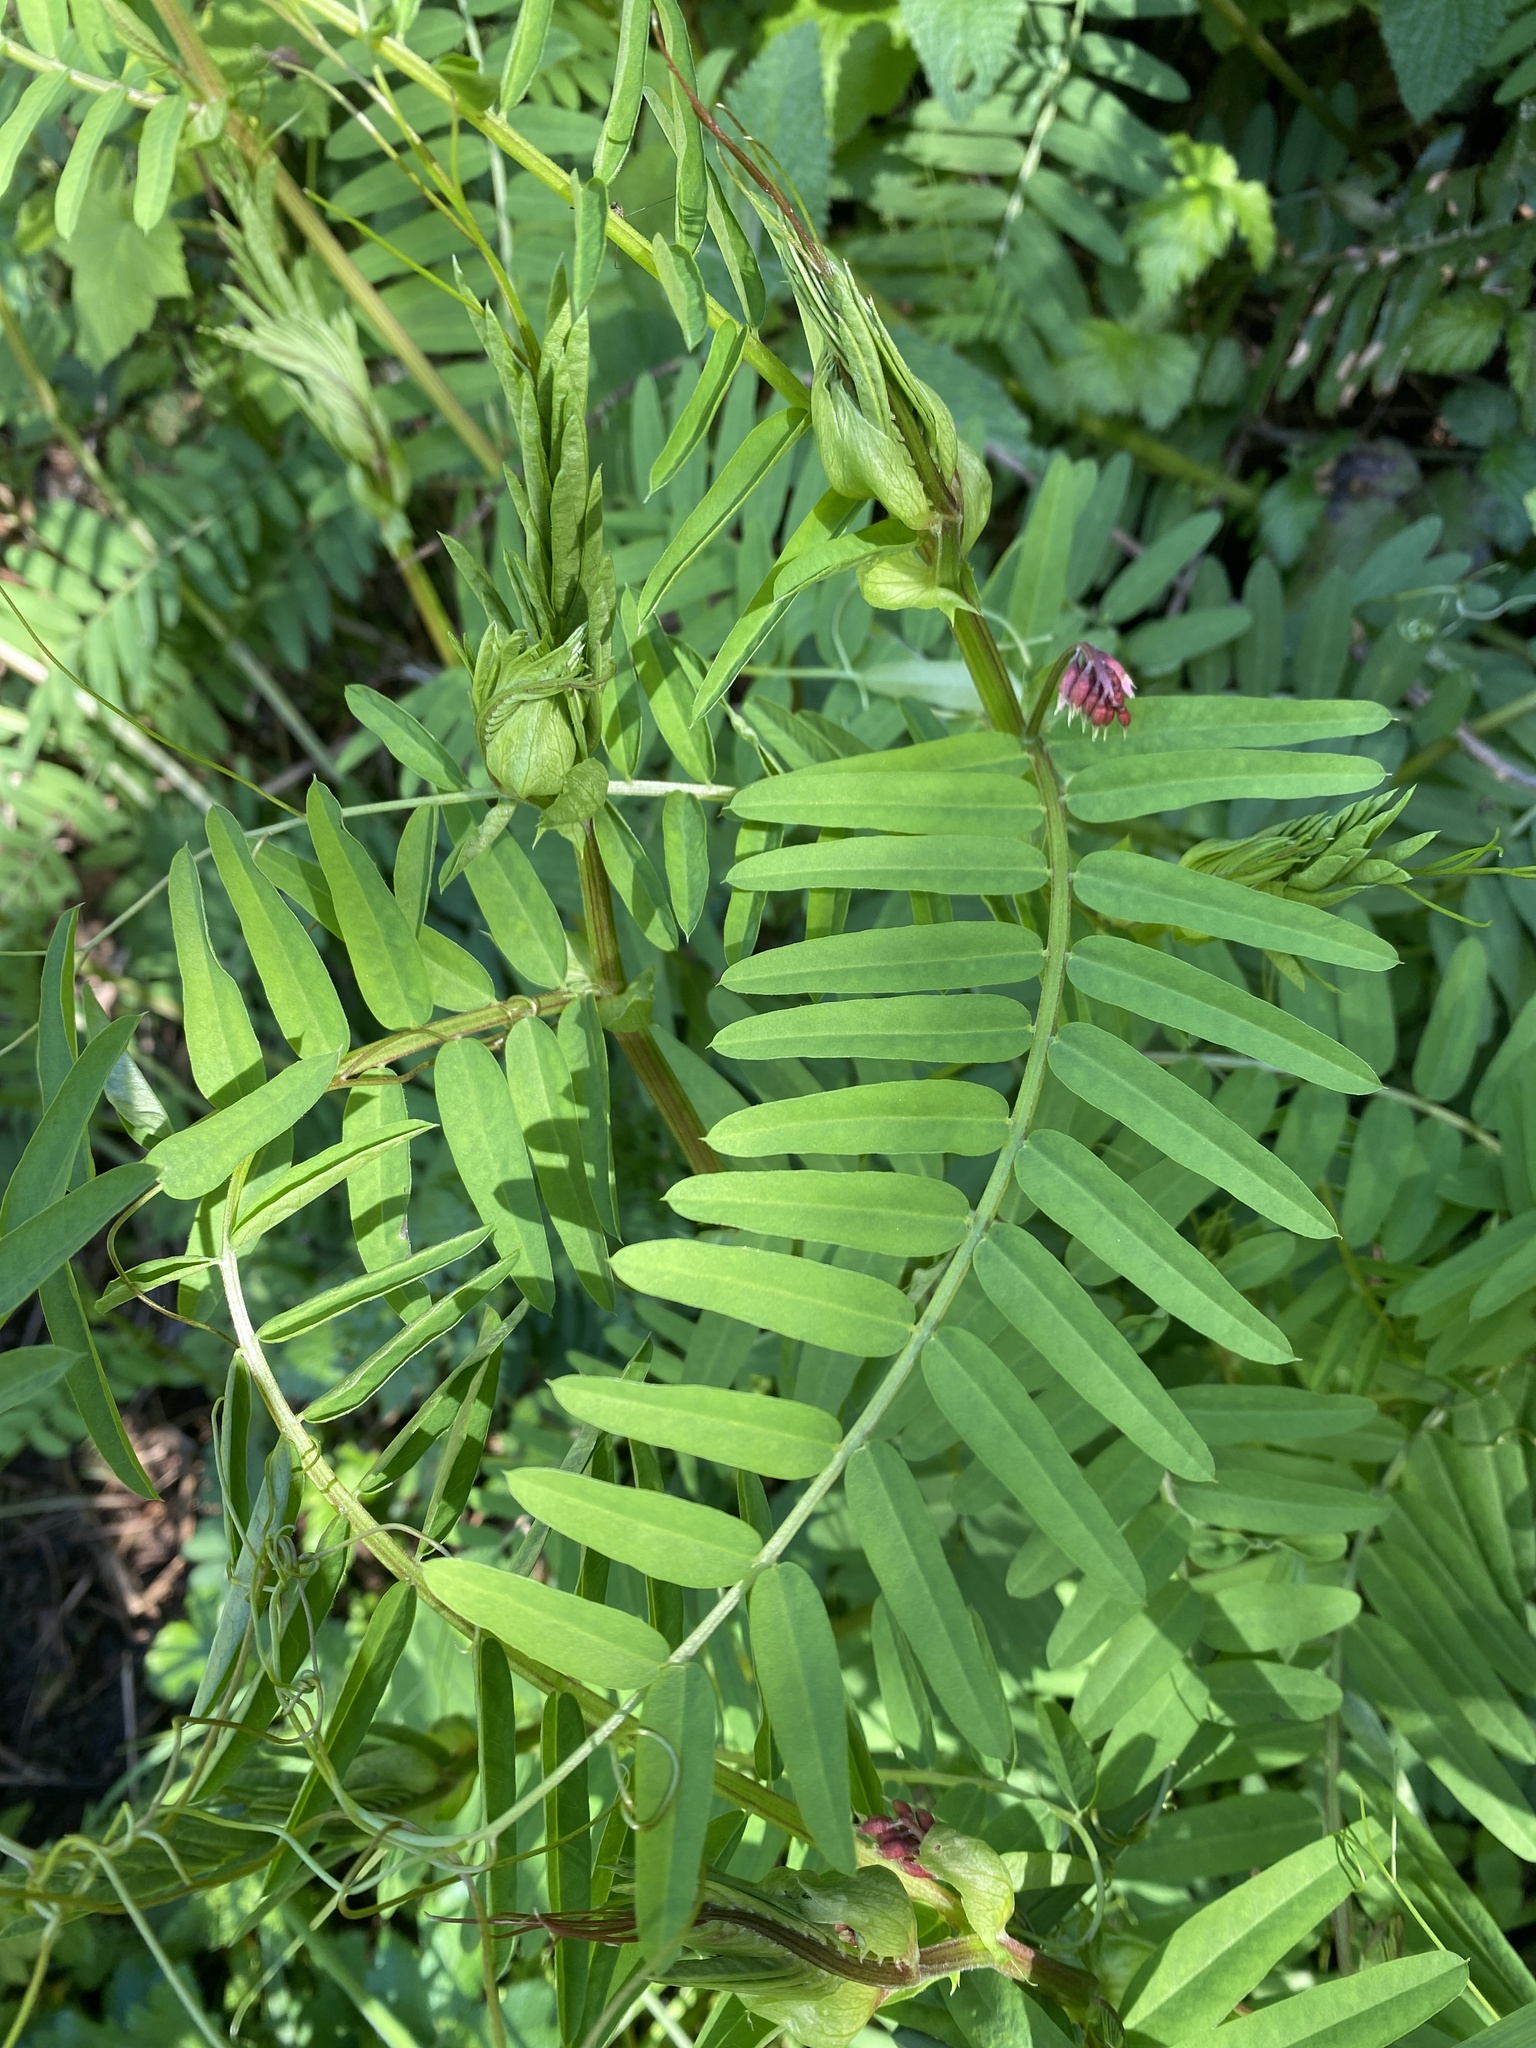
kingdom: Plantae
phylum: Tracheophyta
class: Magnoliopsida
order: Fabales
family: Fabaceae
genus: Vicia
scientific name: Vicia
